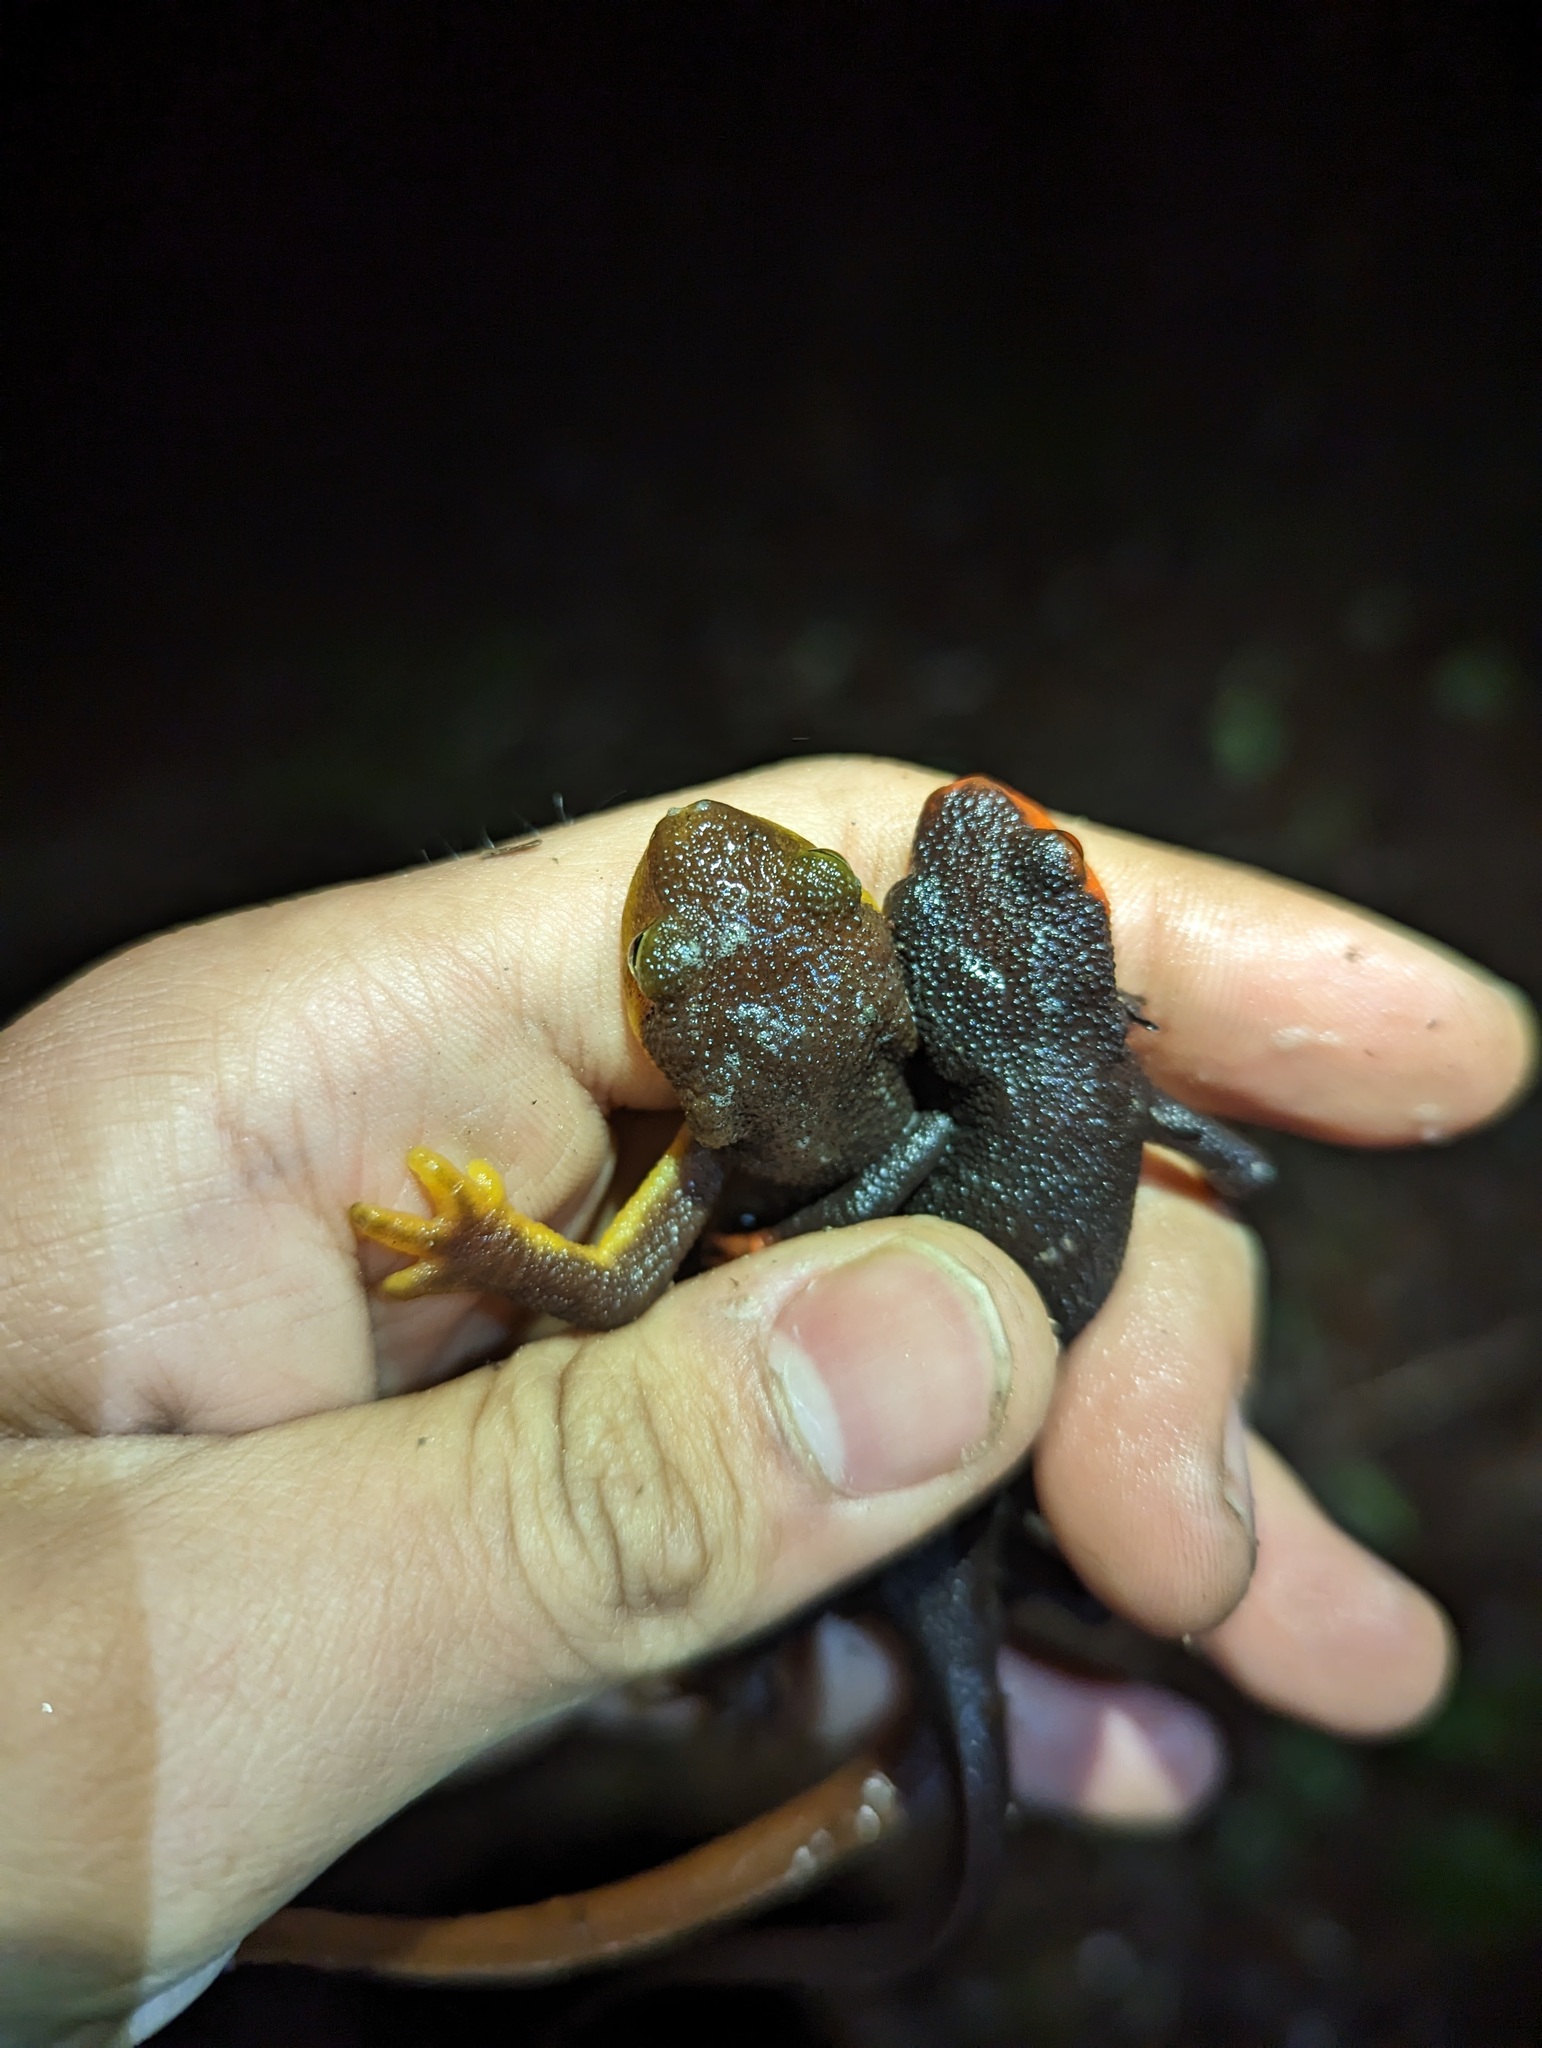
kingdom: Animalia
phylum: Chordata
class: Amphibia
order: Caudata
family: Salamandridae
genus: Taricha
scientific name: Taricha torosa
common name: California newt
